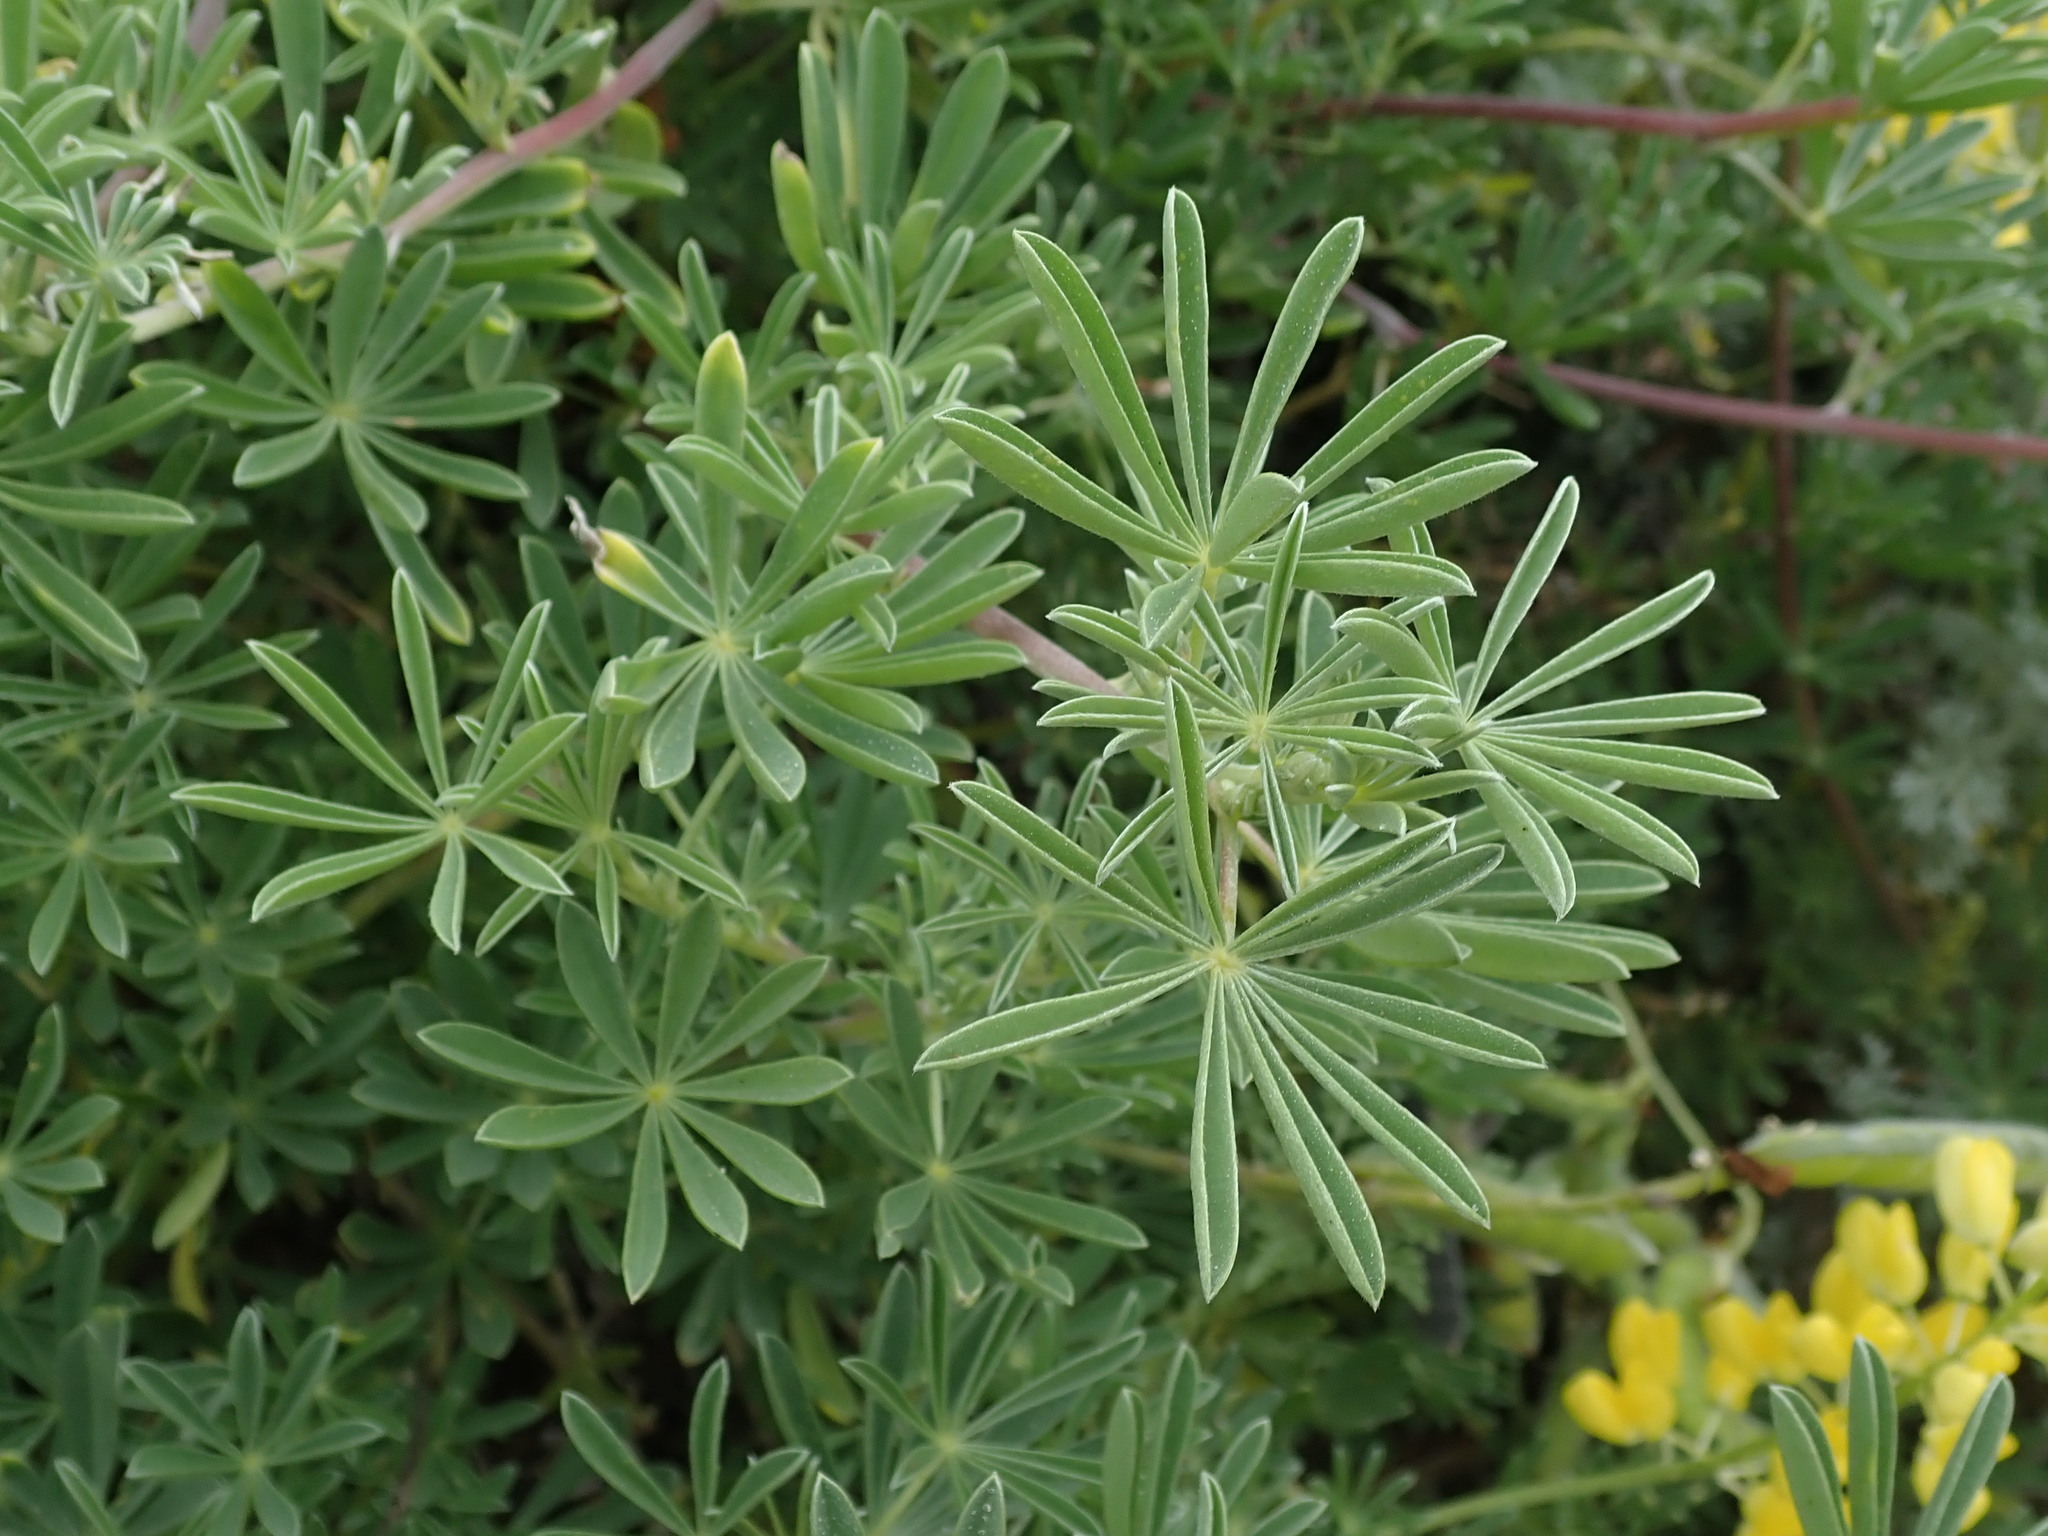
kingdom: Plantae
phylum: Tracheophyta
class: Magnoliopsida
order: Fabales
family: Fabaceae
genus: Lupinus
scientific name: Lupinus arboreus
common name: Yellow bush lupine
